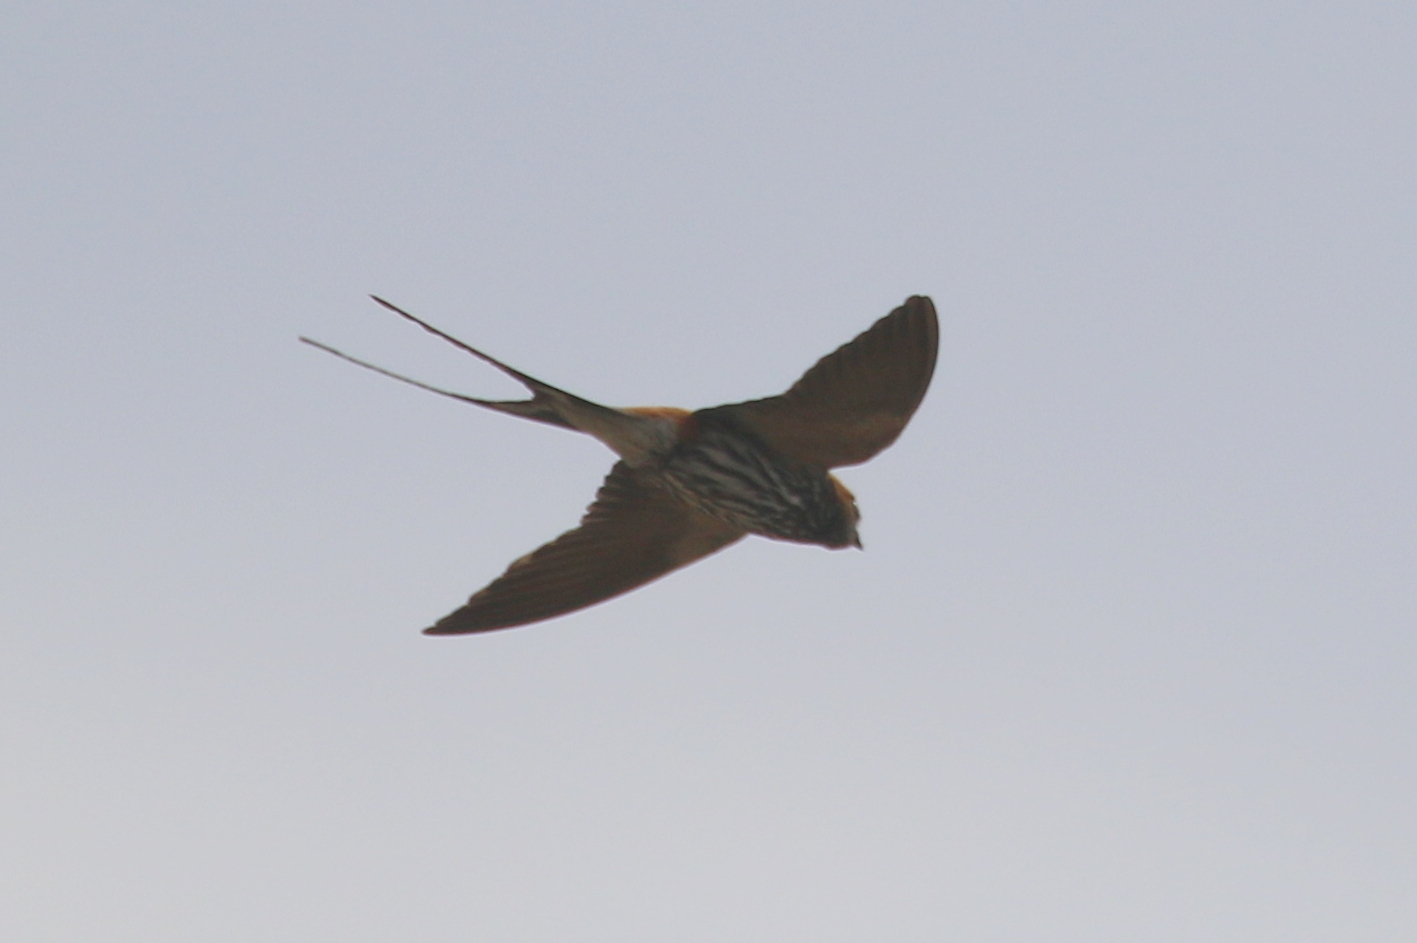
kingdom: Animalia
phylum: Chordata
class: Aves
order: Passeriformes
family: Hirundinidae
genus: Cecropis
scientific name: Cecropis abyssinica
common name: Lesser striped-swallow
